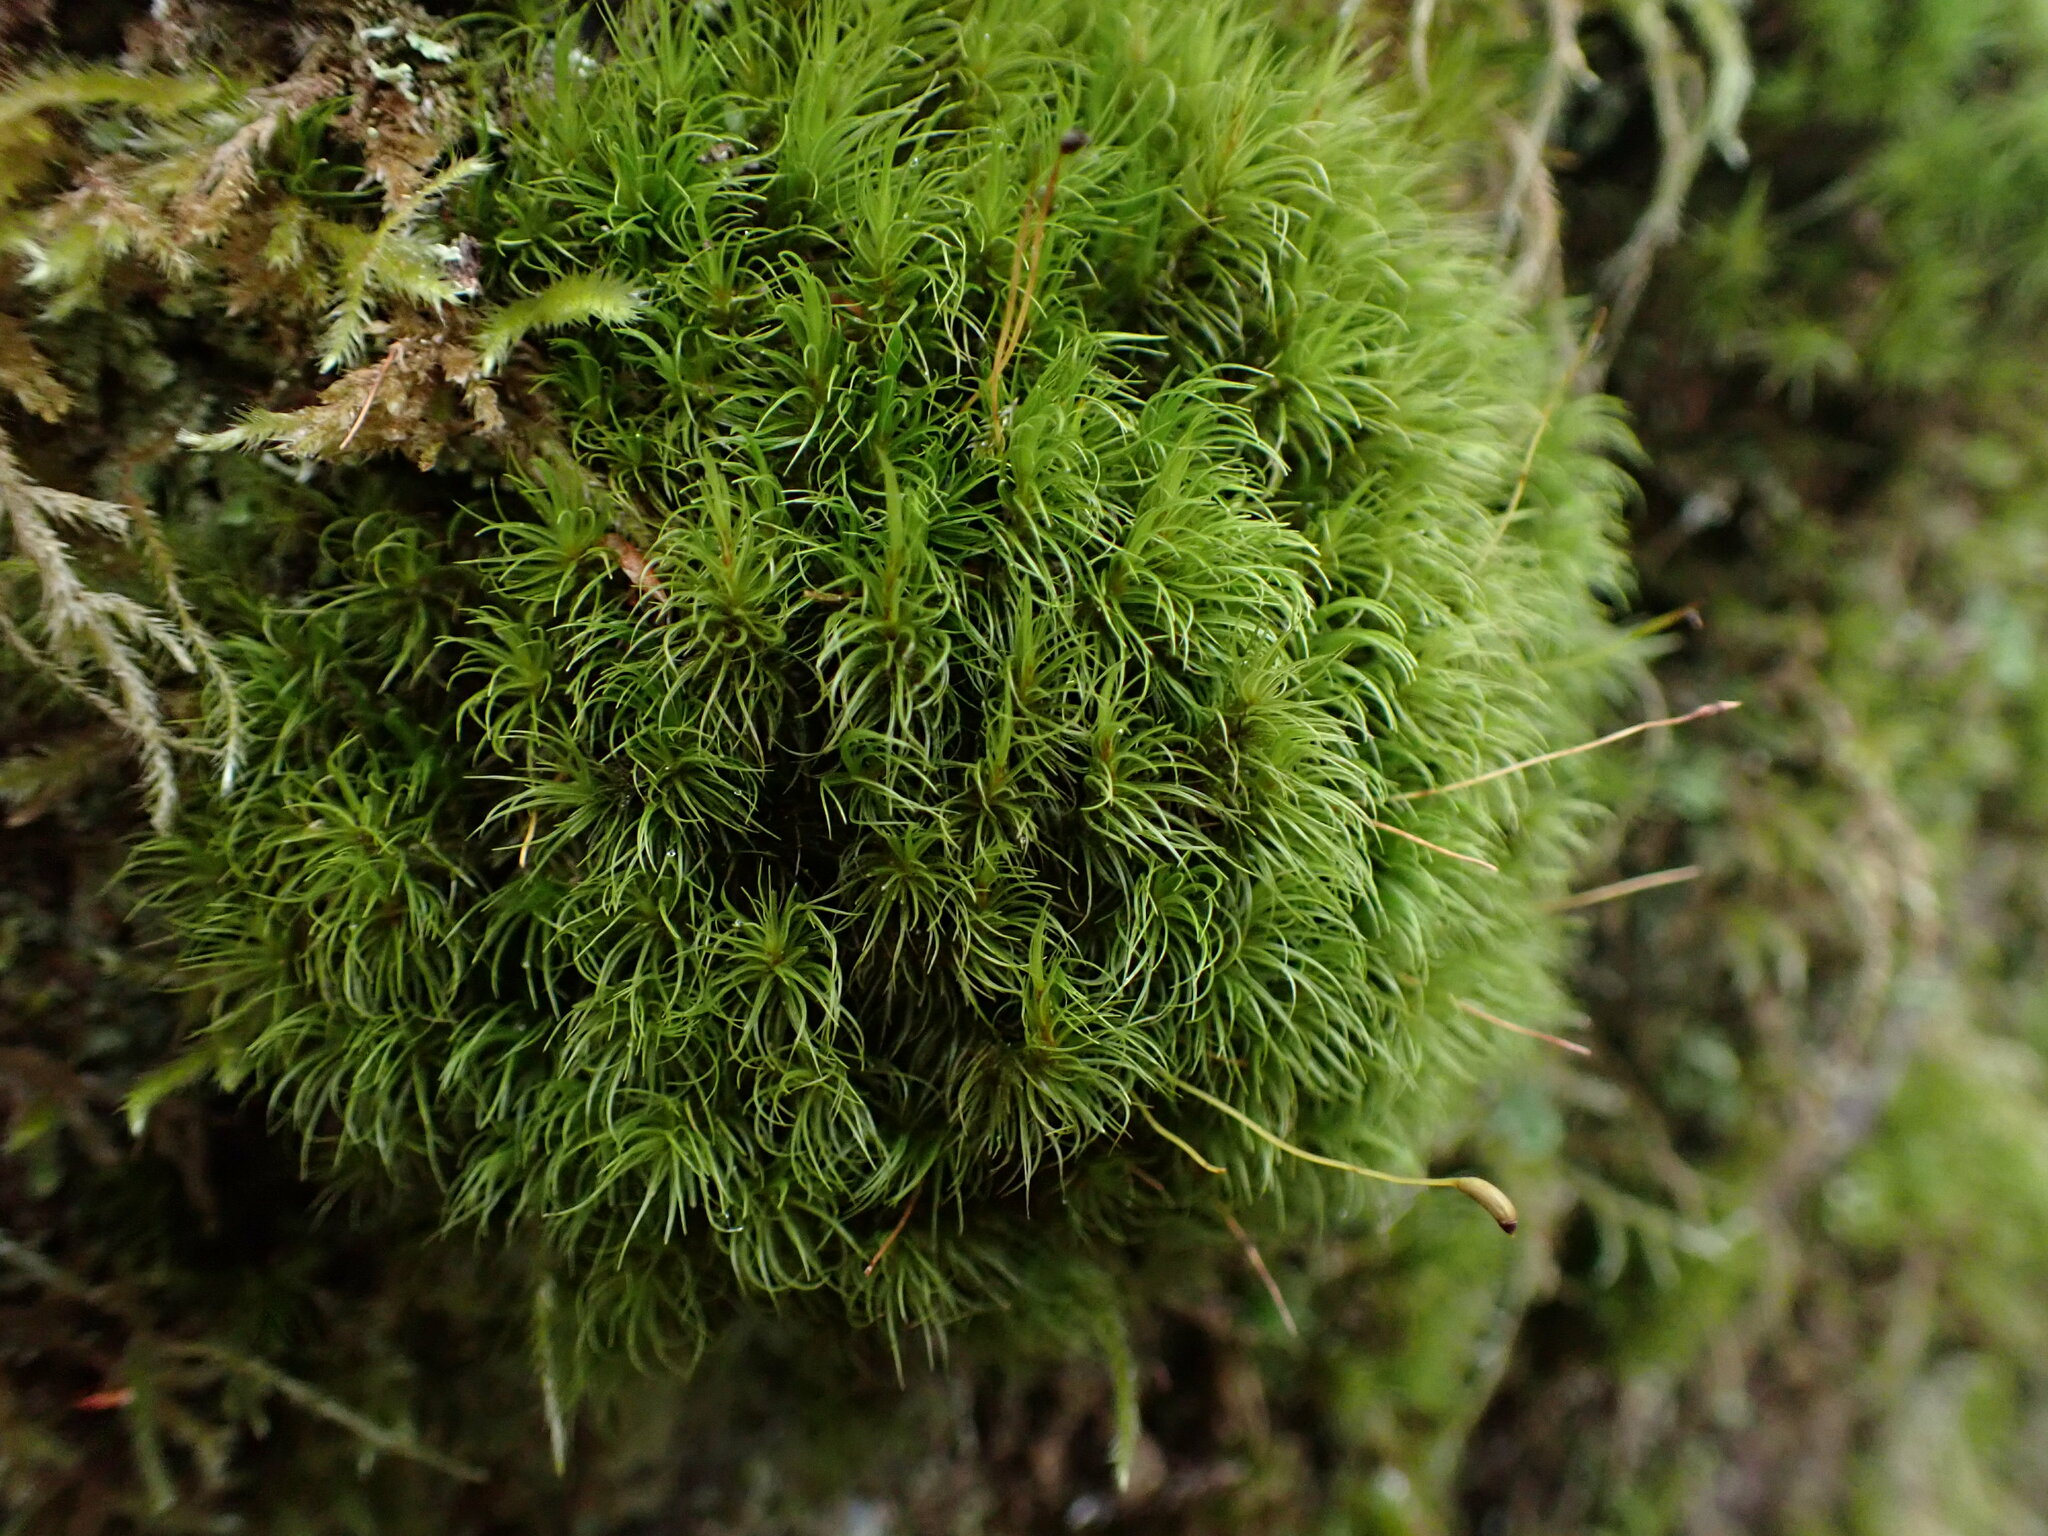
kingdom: Plantae
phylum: Bryophyta
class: Bryopsida
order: Dicranales
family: Dicranaceae
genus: Dicranum
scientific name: Dicranum fuscescens
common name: Curly heron's-bill moss
